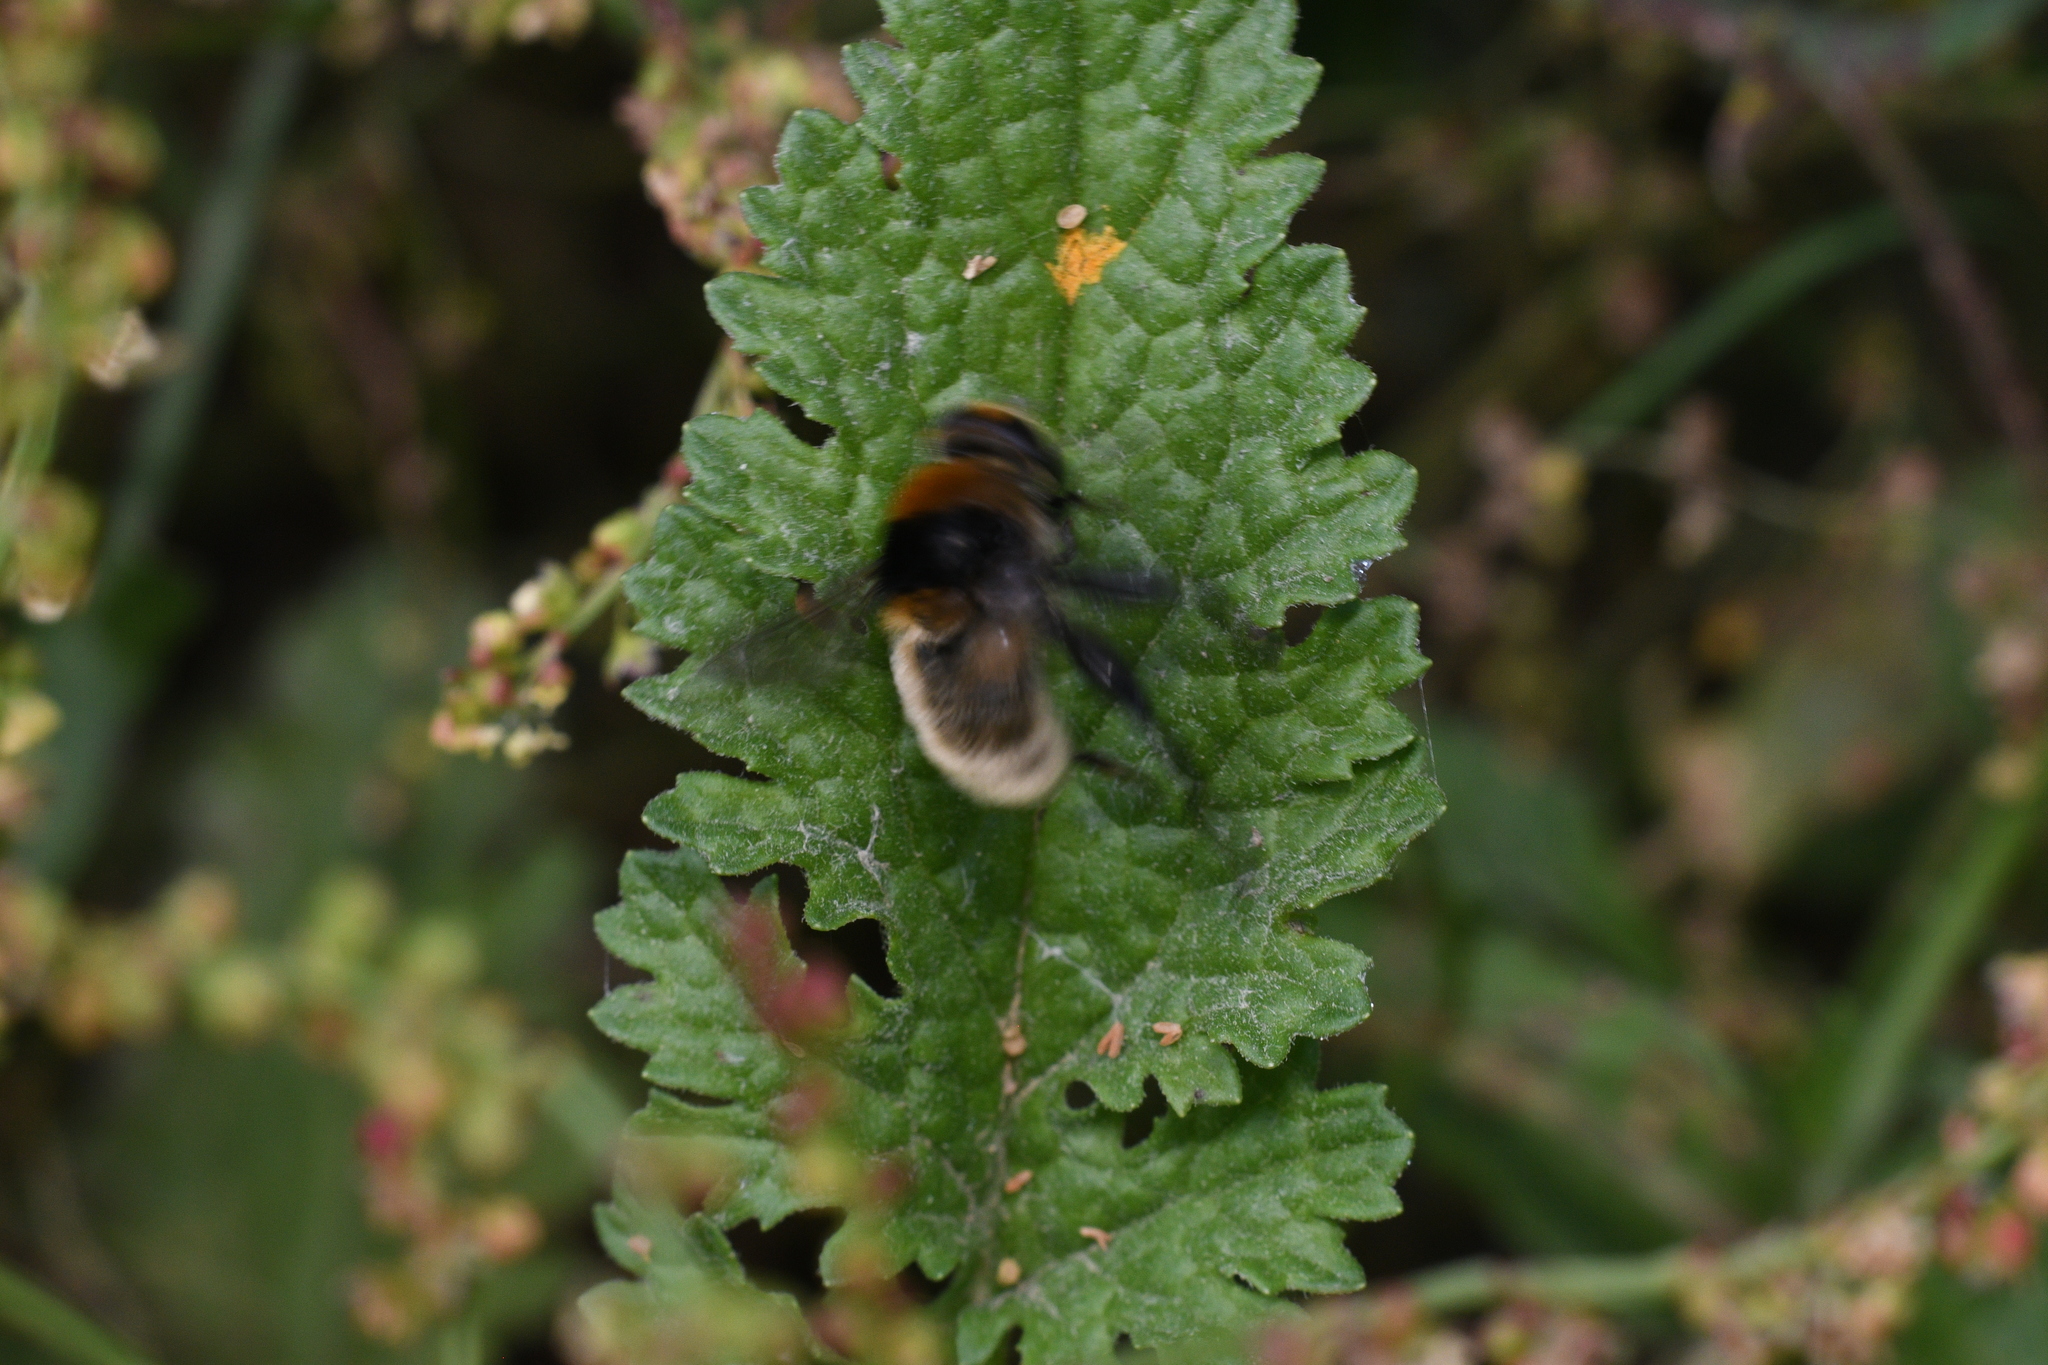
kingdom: Animalia
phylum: Arthropoda
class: Insecta
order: Diptera
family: Syrphidae
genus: Merodon
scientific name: Merodon equestris
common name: Greater bulb-fly
